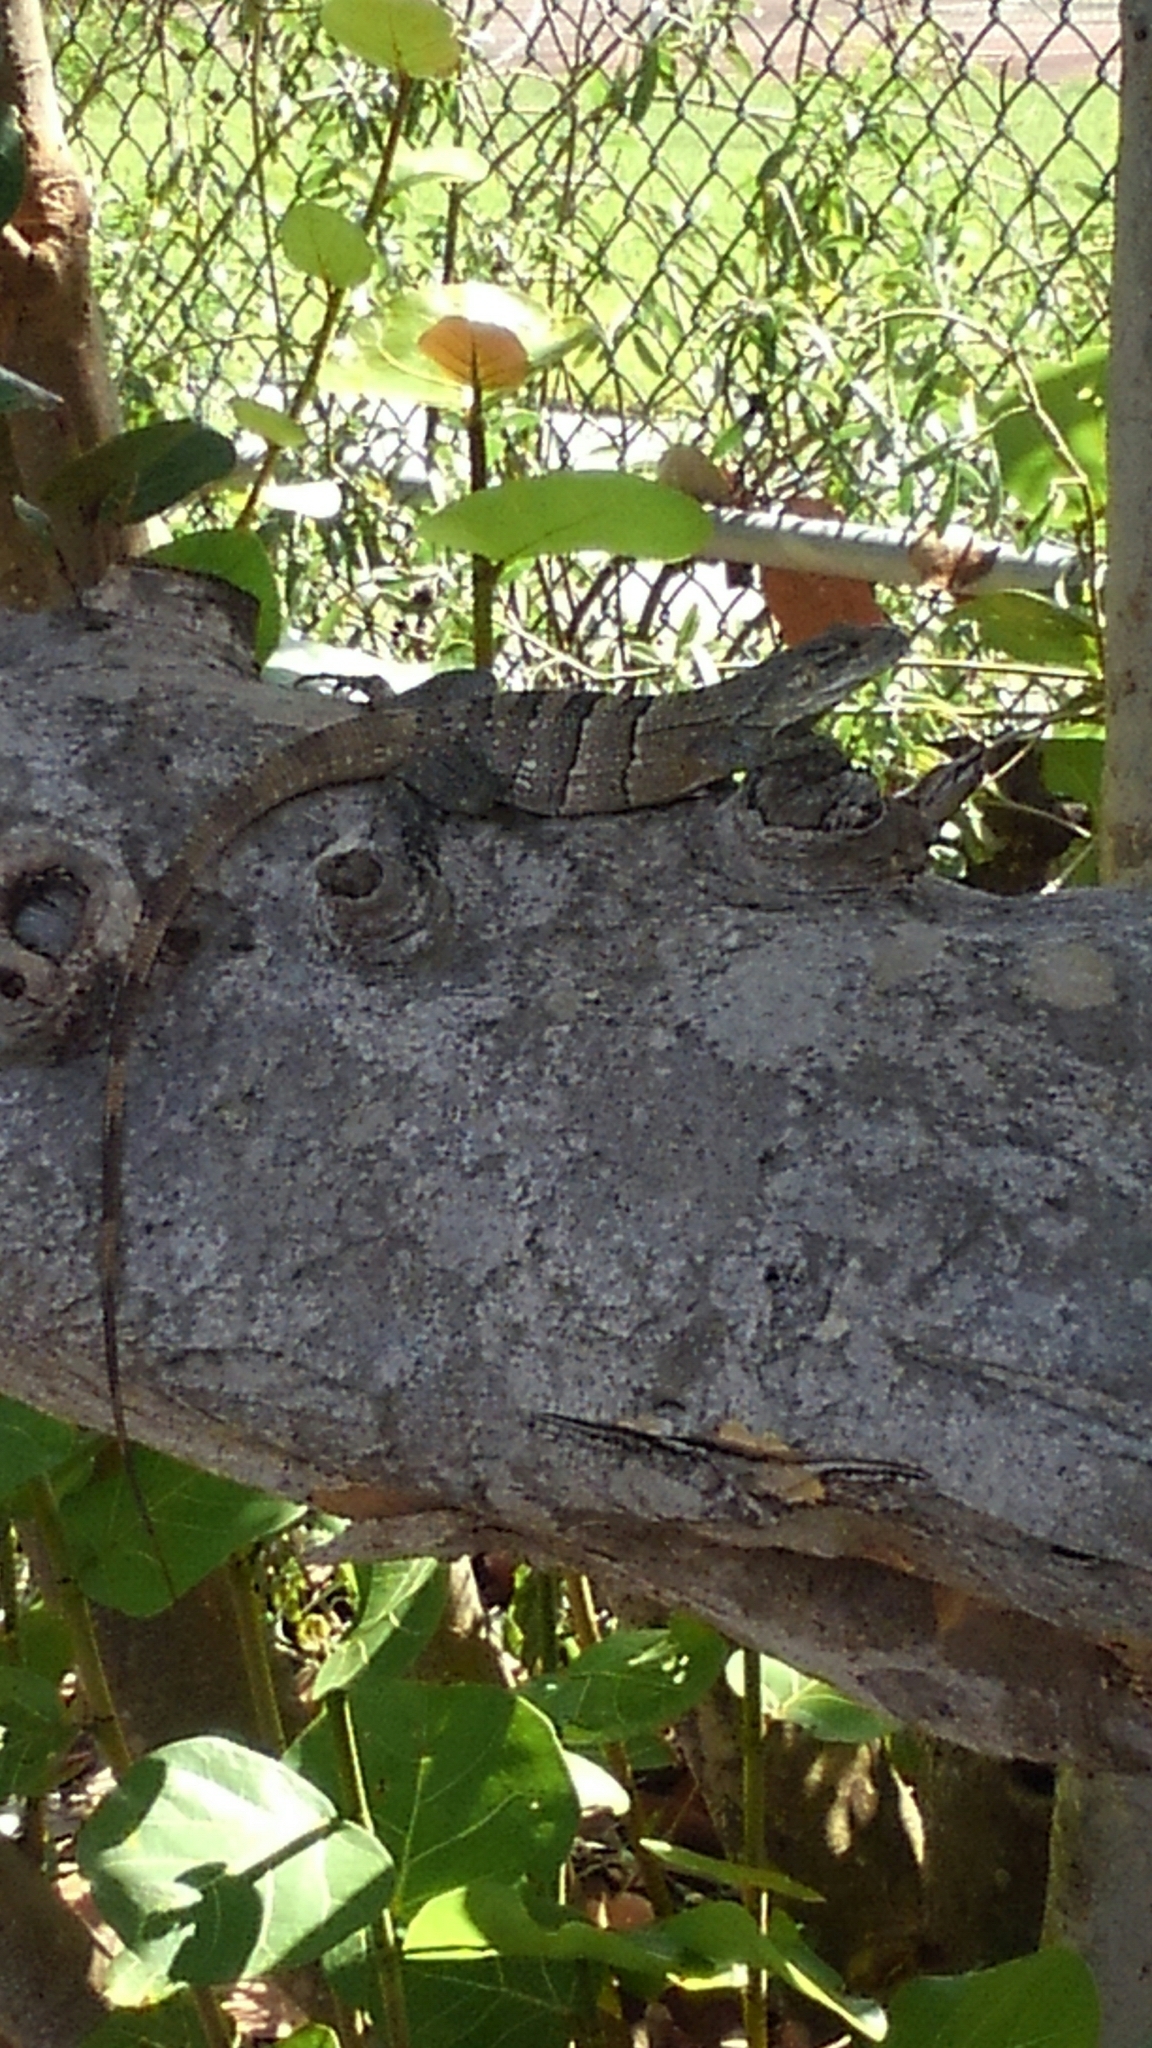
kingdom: Animalia
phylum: Chordata
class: Squamata
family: Iguanidae
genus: Ctenosaura
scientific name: Ctenosaura similis
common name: Black spiny-tailed iguana
